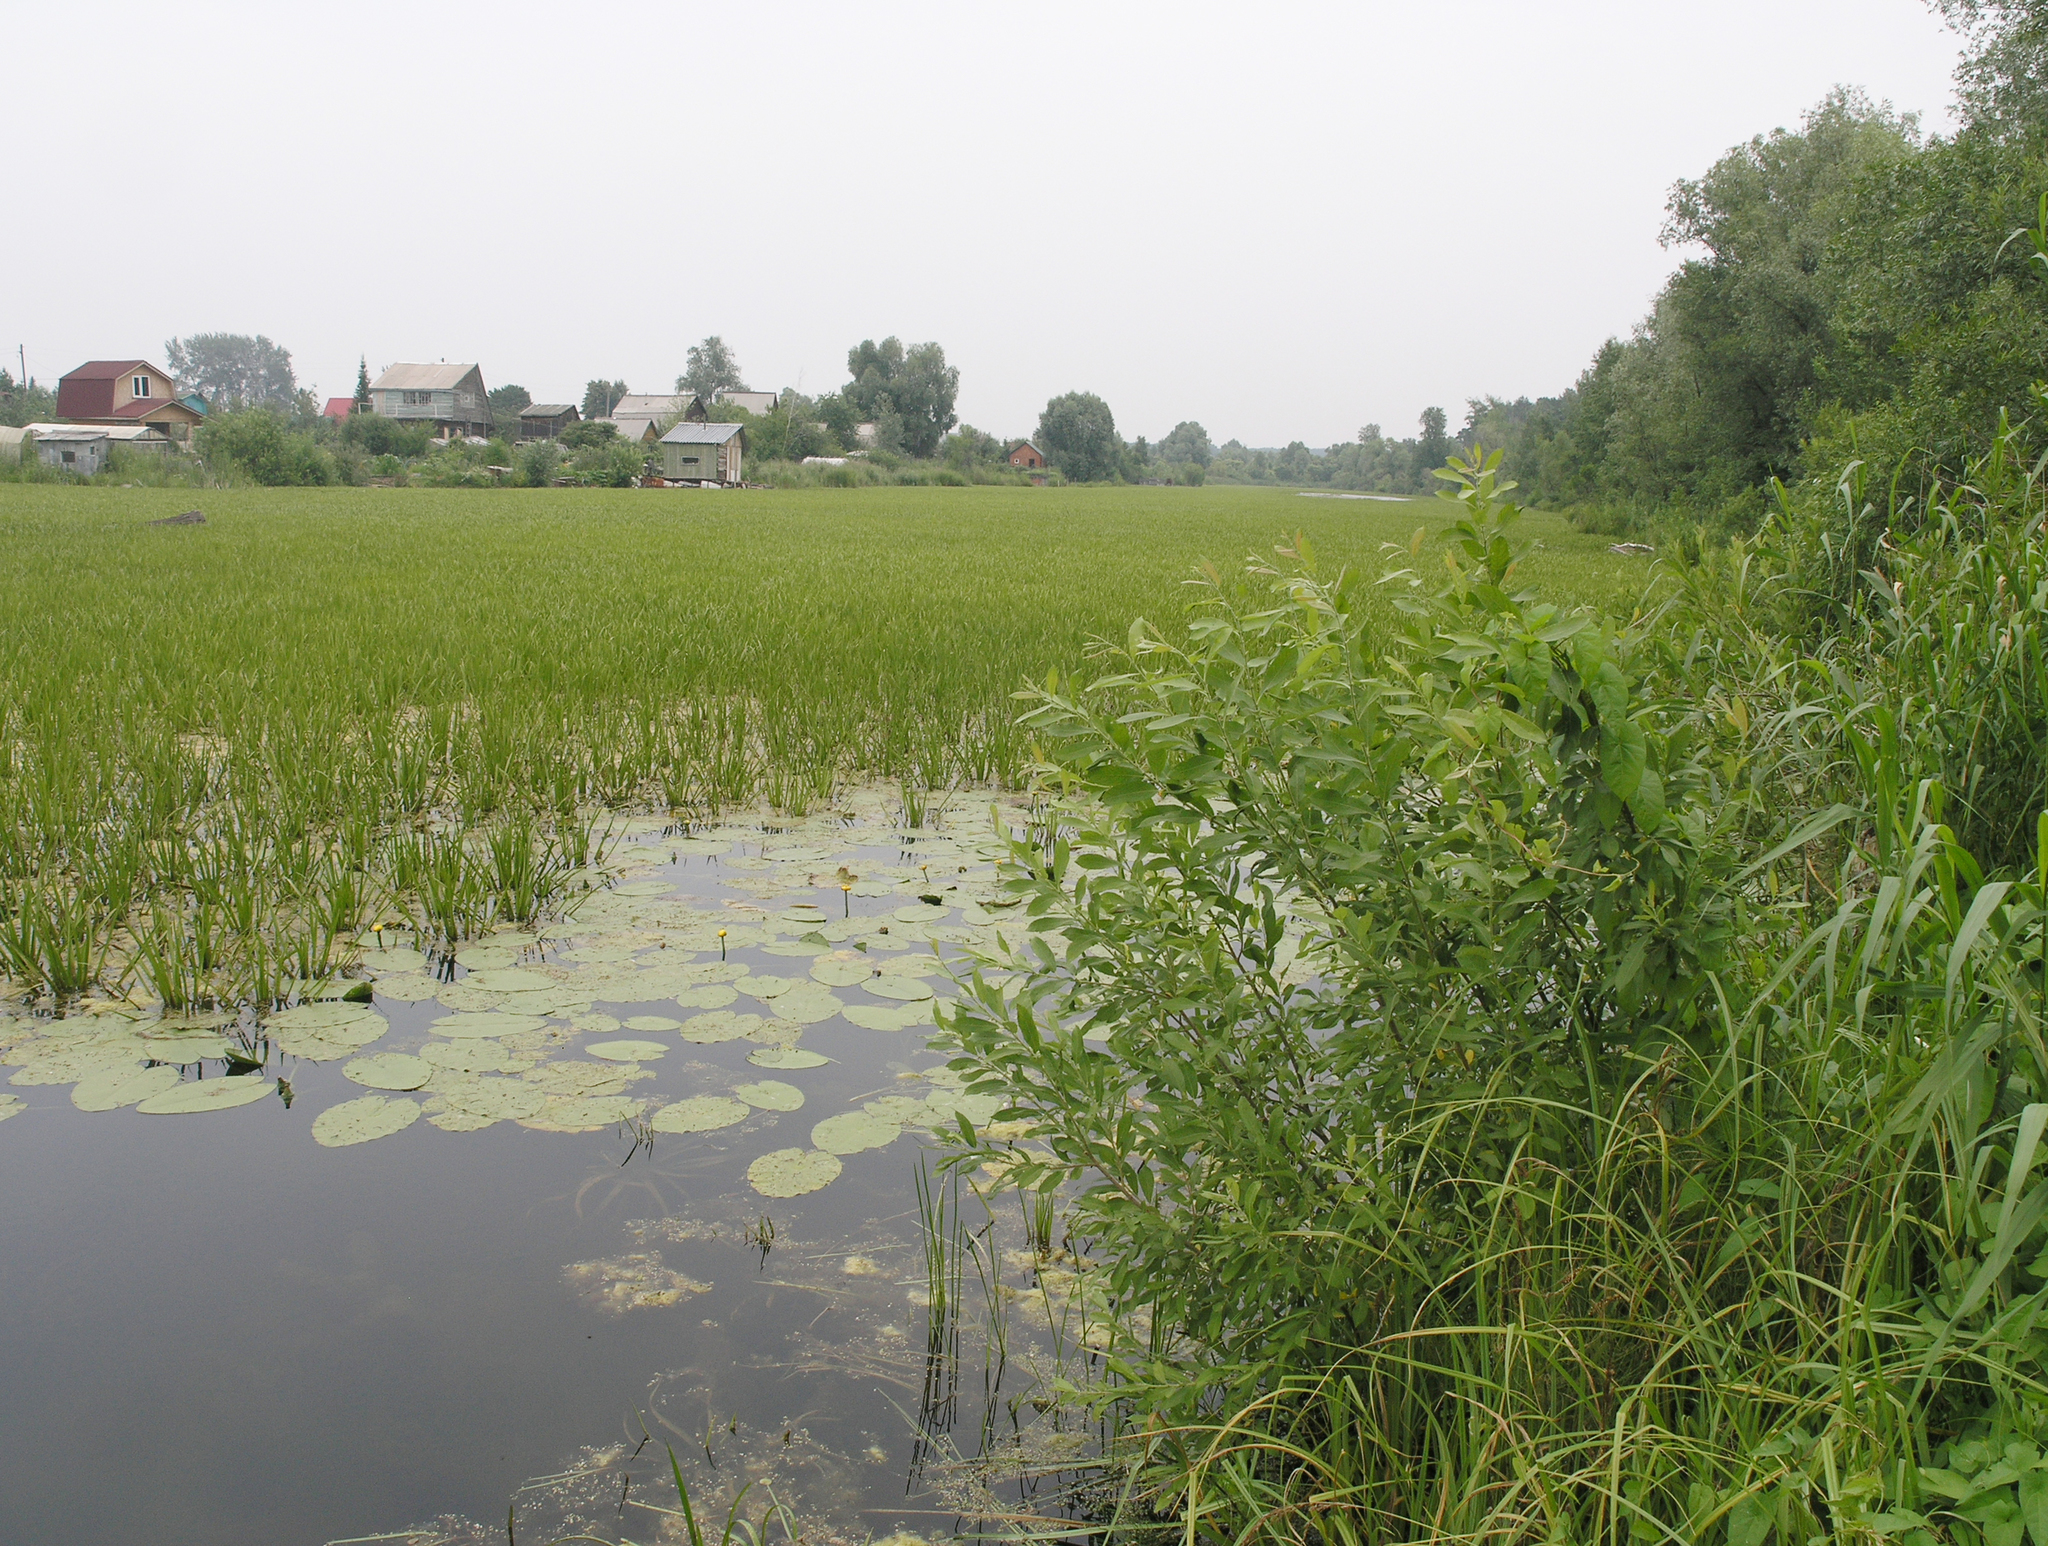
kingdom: Plantae
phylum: Tracheophyta
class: Liliopsida
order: Alismatales
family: Hydrocharitaceae
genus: Stratiotes
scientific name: Stratiotes aloides
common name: Water-soldier
